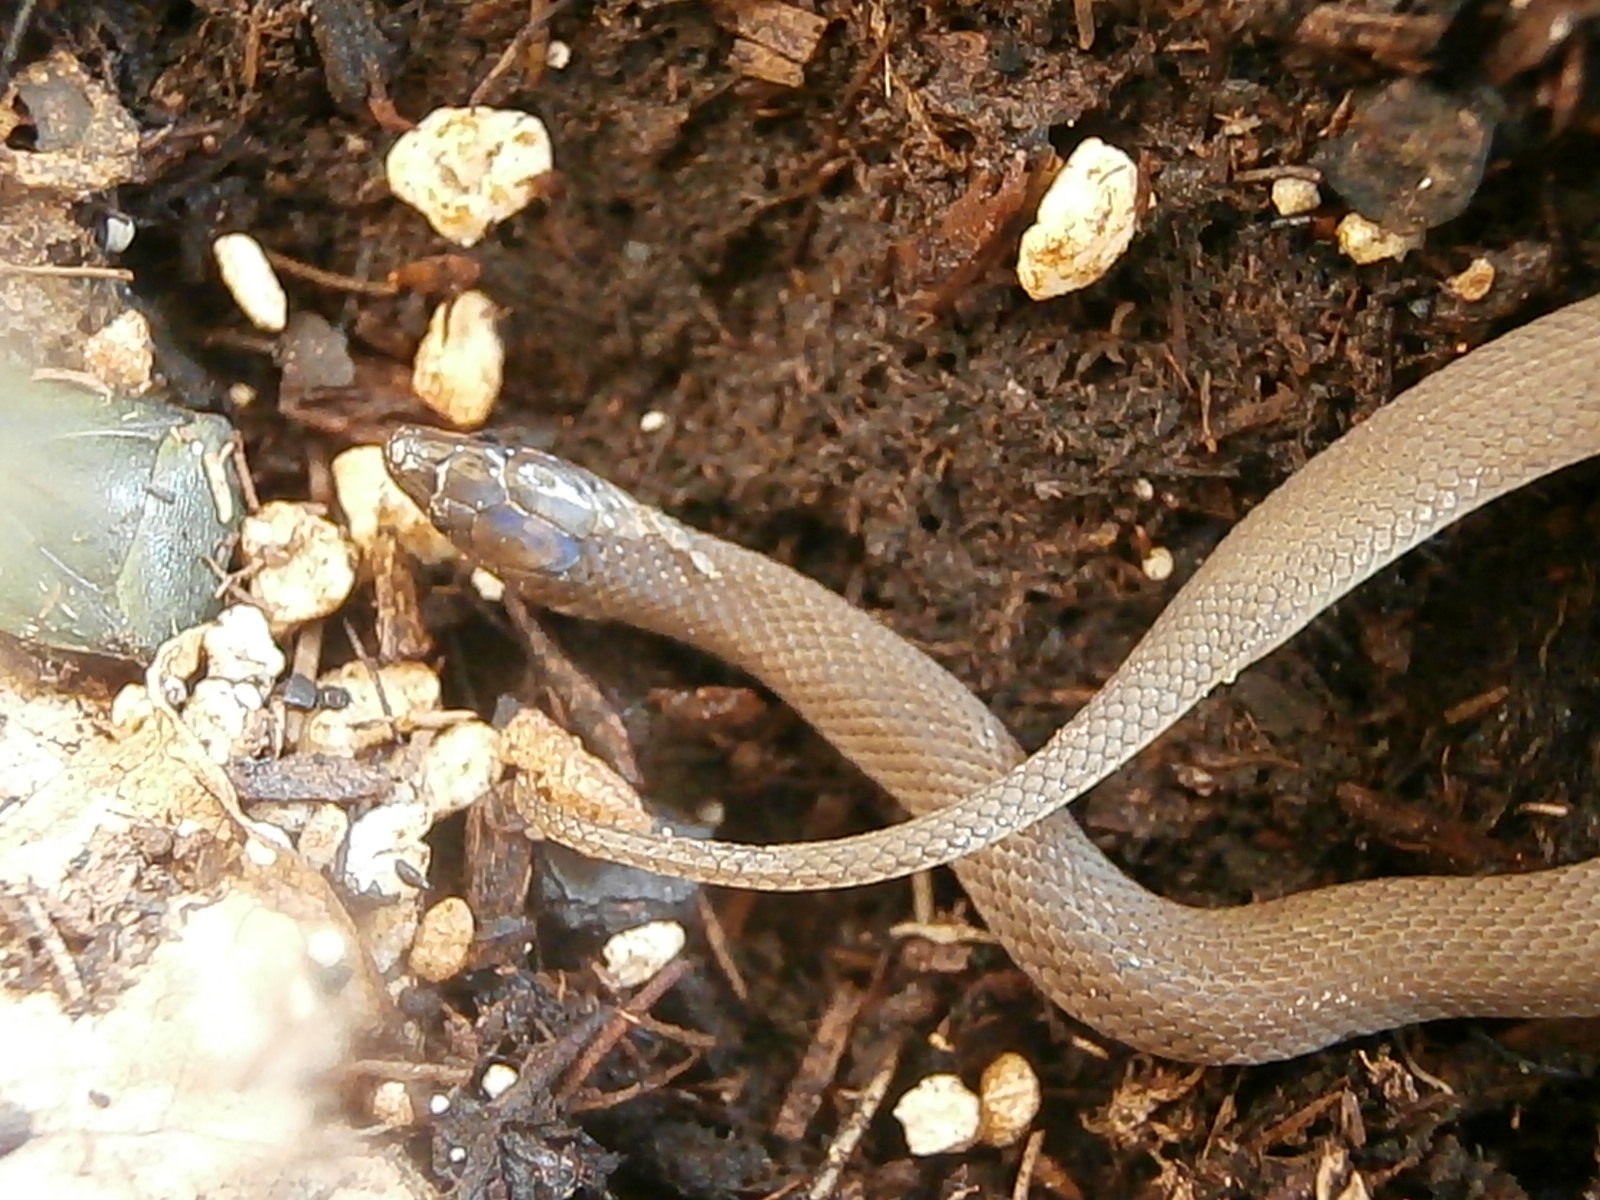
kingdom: Animalia
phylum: Chordata
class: Squamata
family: Colubridae
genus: Haldea
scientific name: Haldea striatula
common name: Rough earth snake
